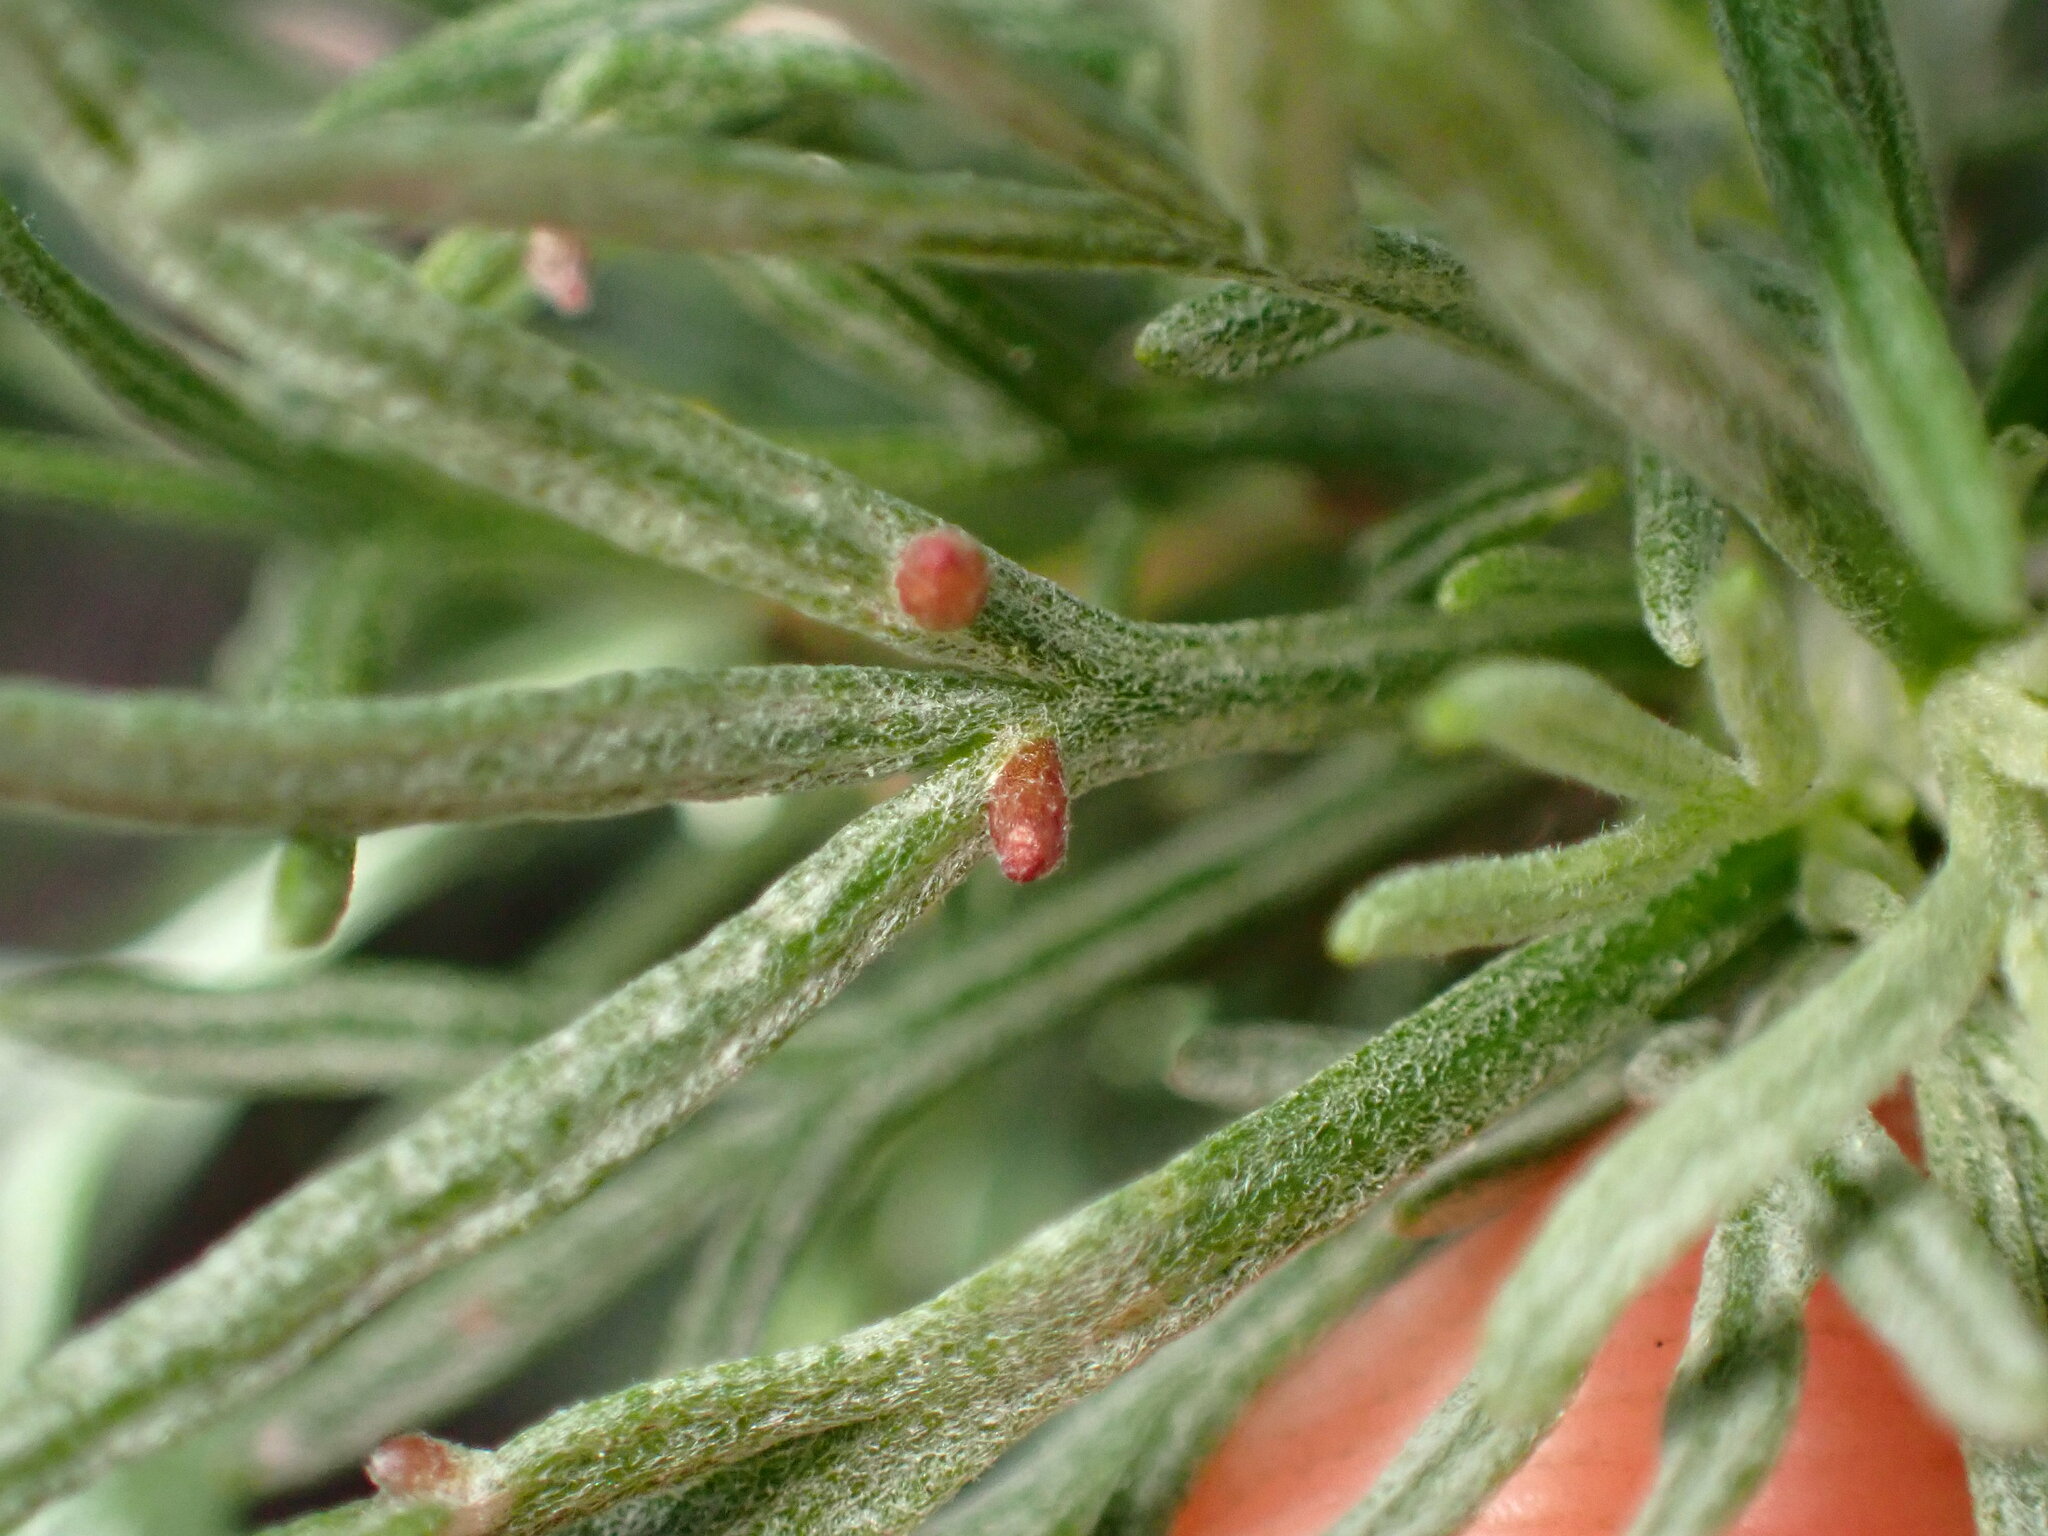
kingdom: Animalia
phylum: Arthropoda
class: Insecta
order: Diptera
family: Cecidomyiidae
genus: Rhopalomyia
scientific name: Rhopalomyia clinata
